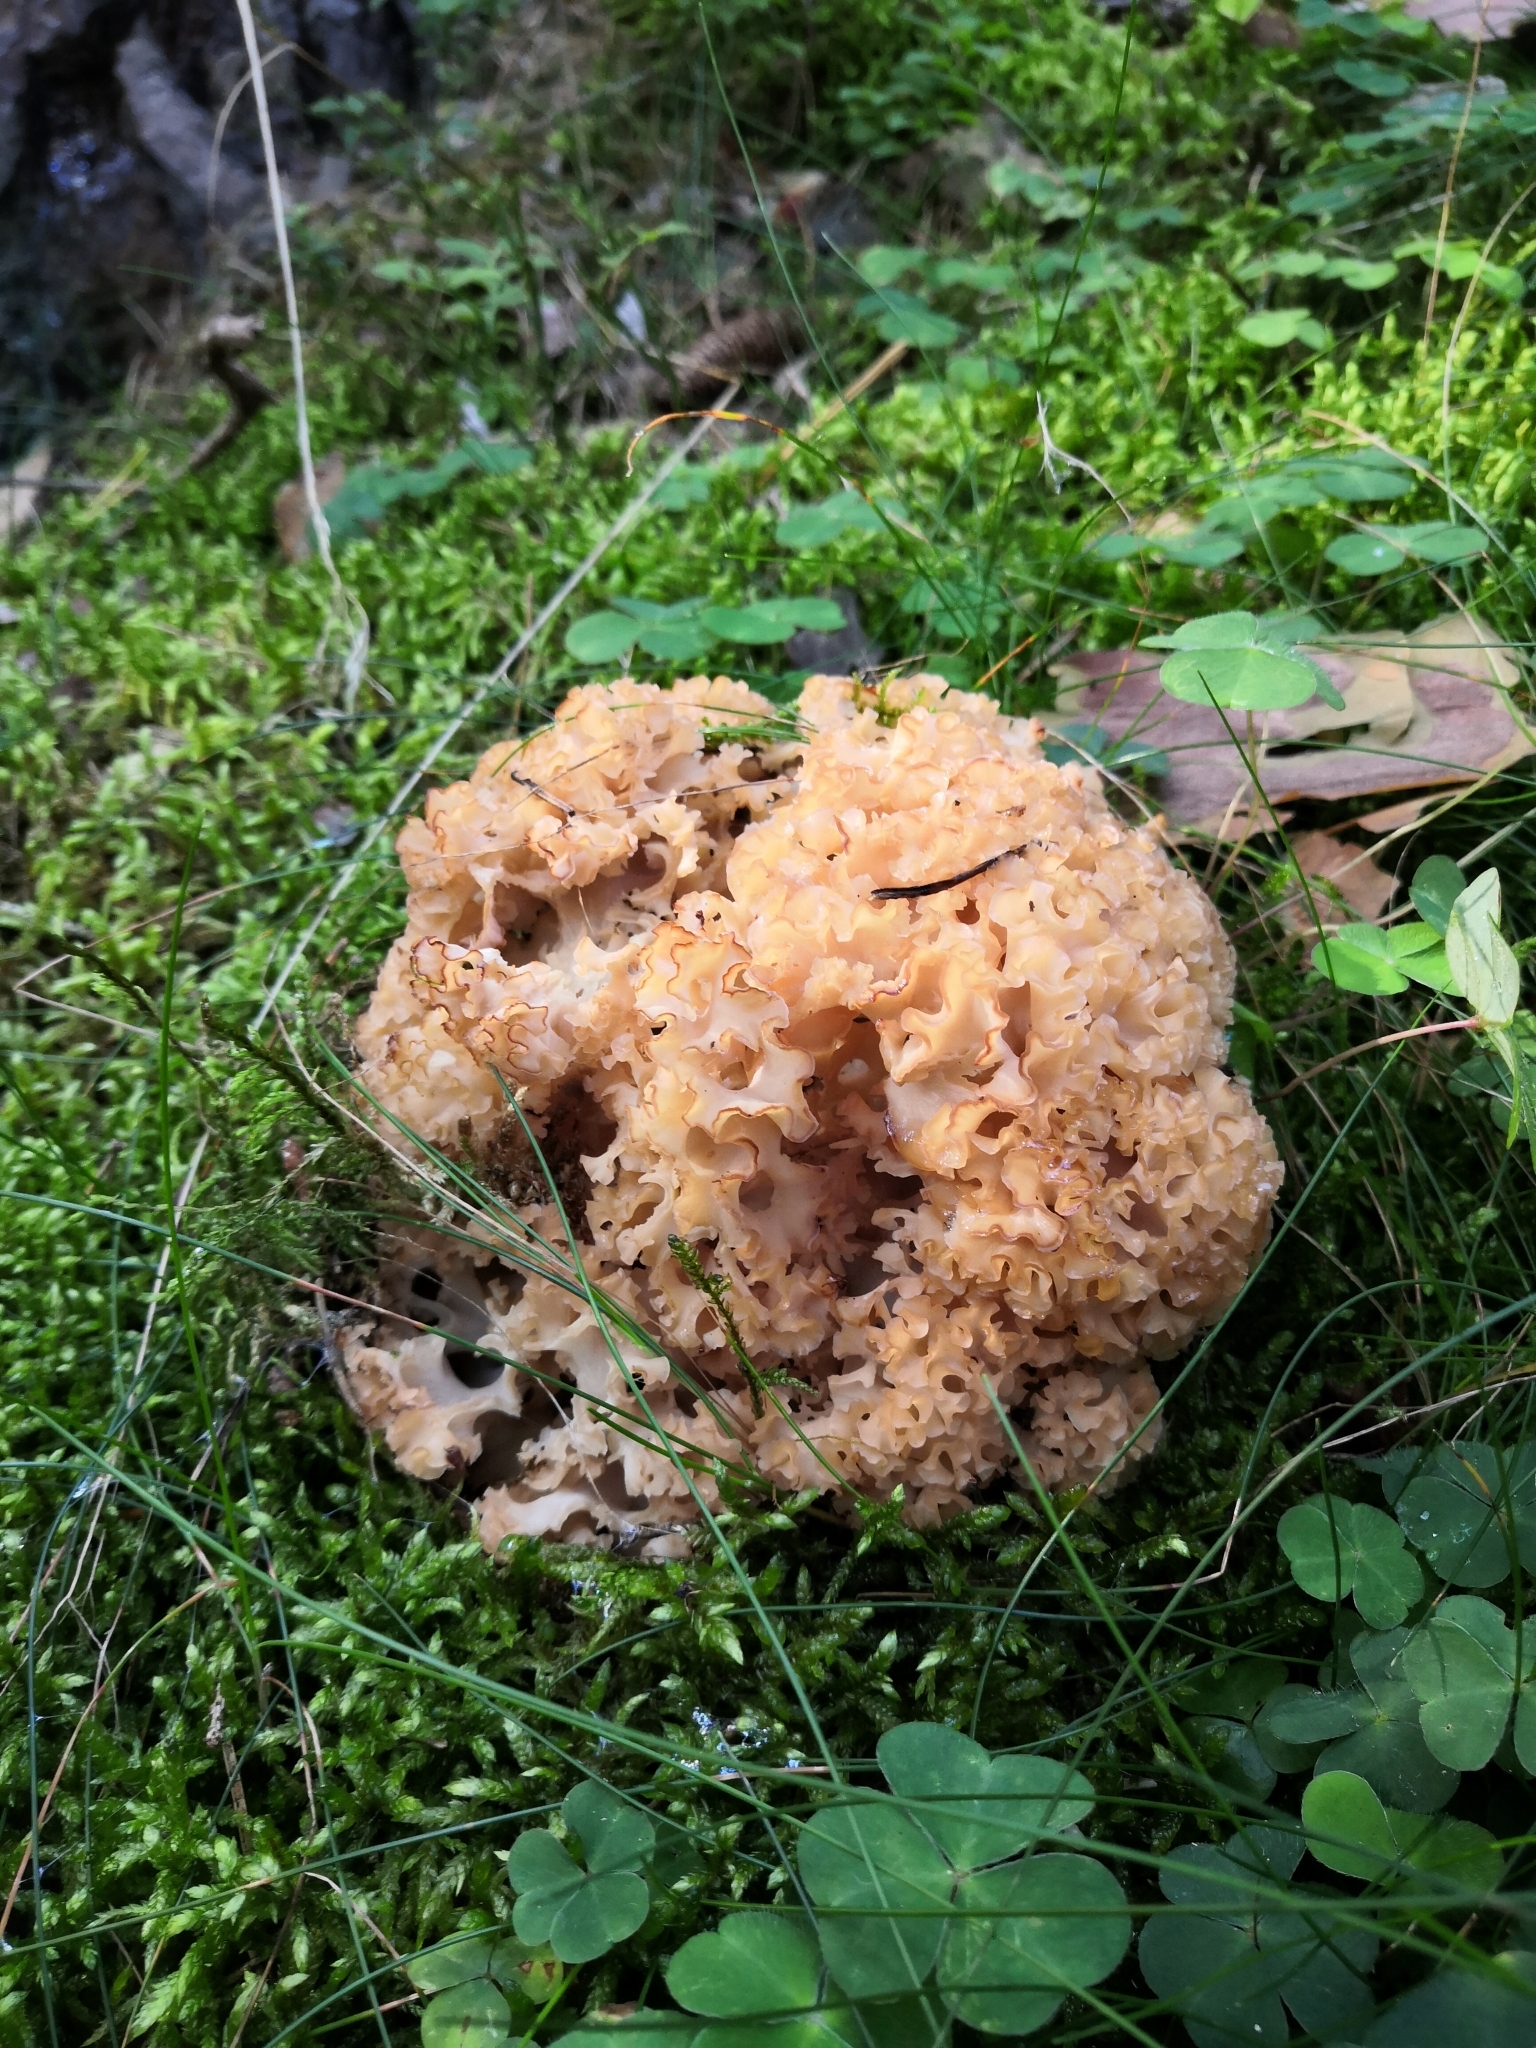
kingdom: Fungi
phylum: Basidiomycota
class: Agaricomycetes
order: Polyporales
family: Sparassidaceae
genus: Sparassis
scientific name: Sparassis crispa
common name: Brain fungus
